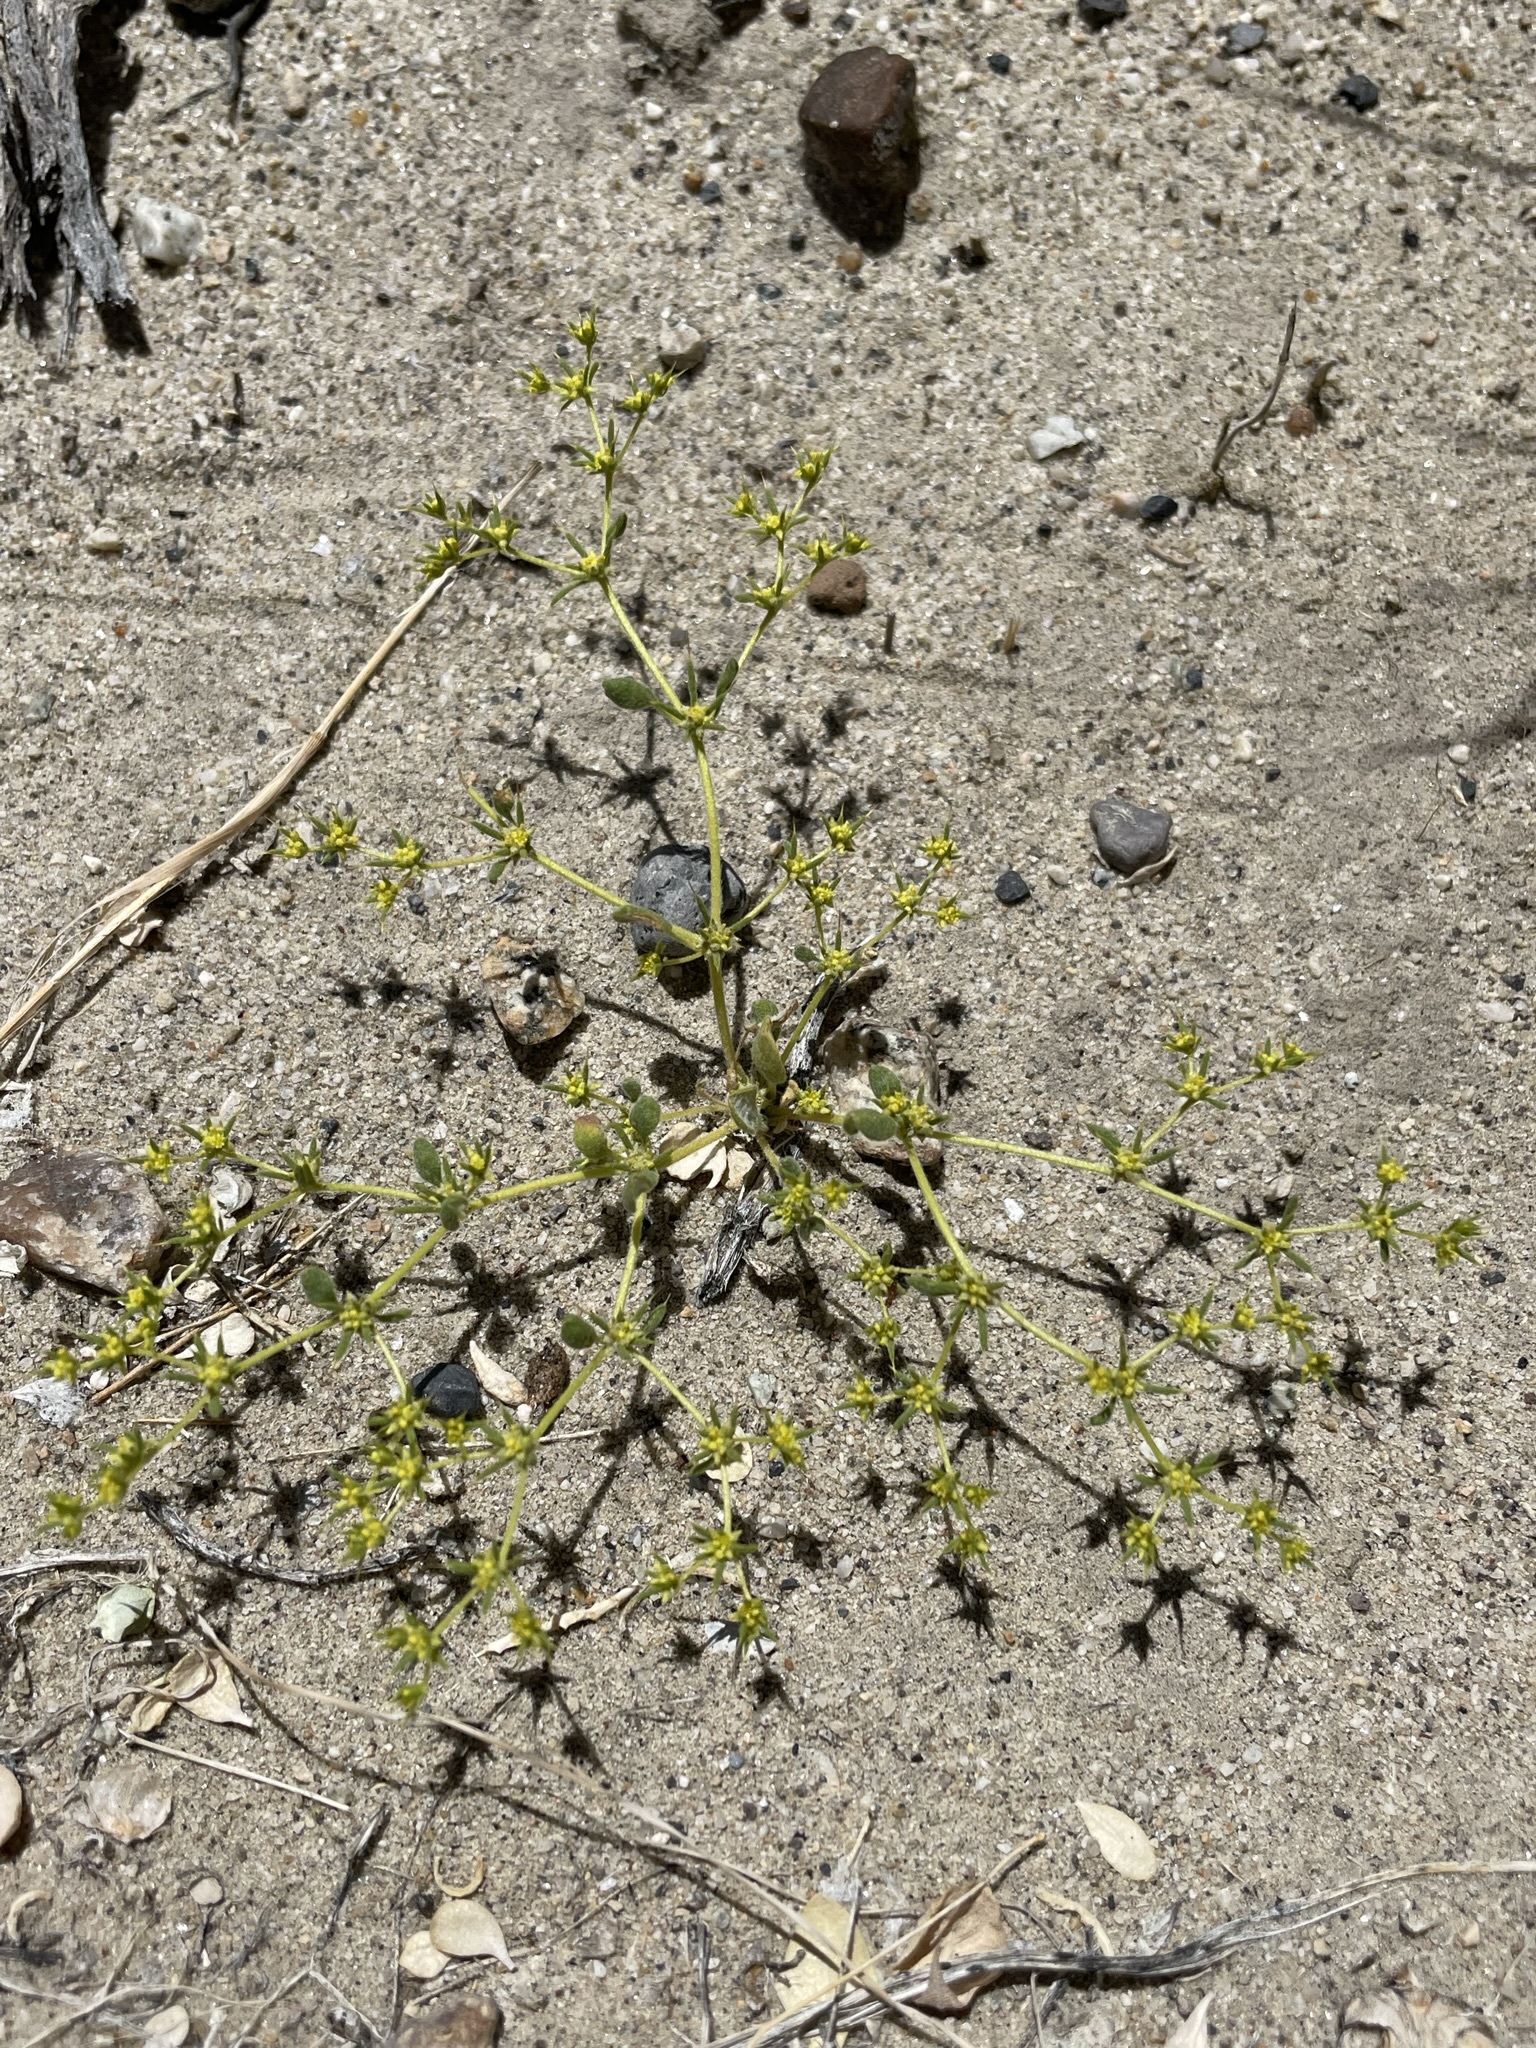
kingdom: Plantae
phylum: Tracheophyta
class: Magnoliopsida
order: Caryophyllales
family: Polygonaceae
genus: Goodmania
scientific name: Goodmania luteola
